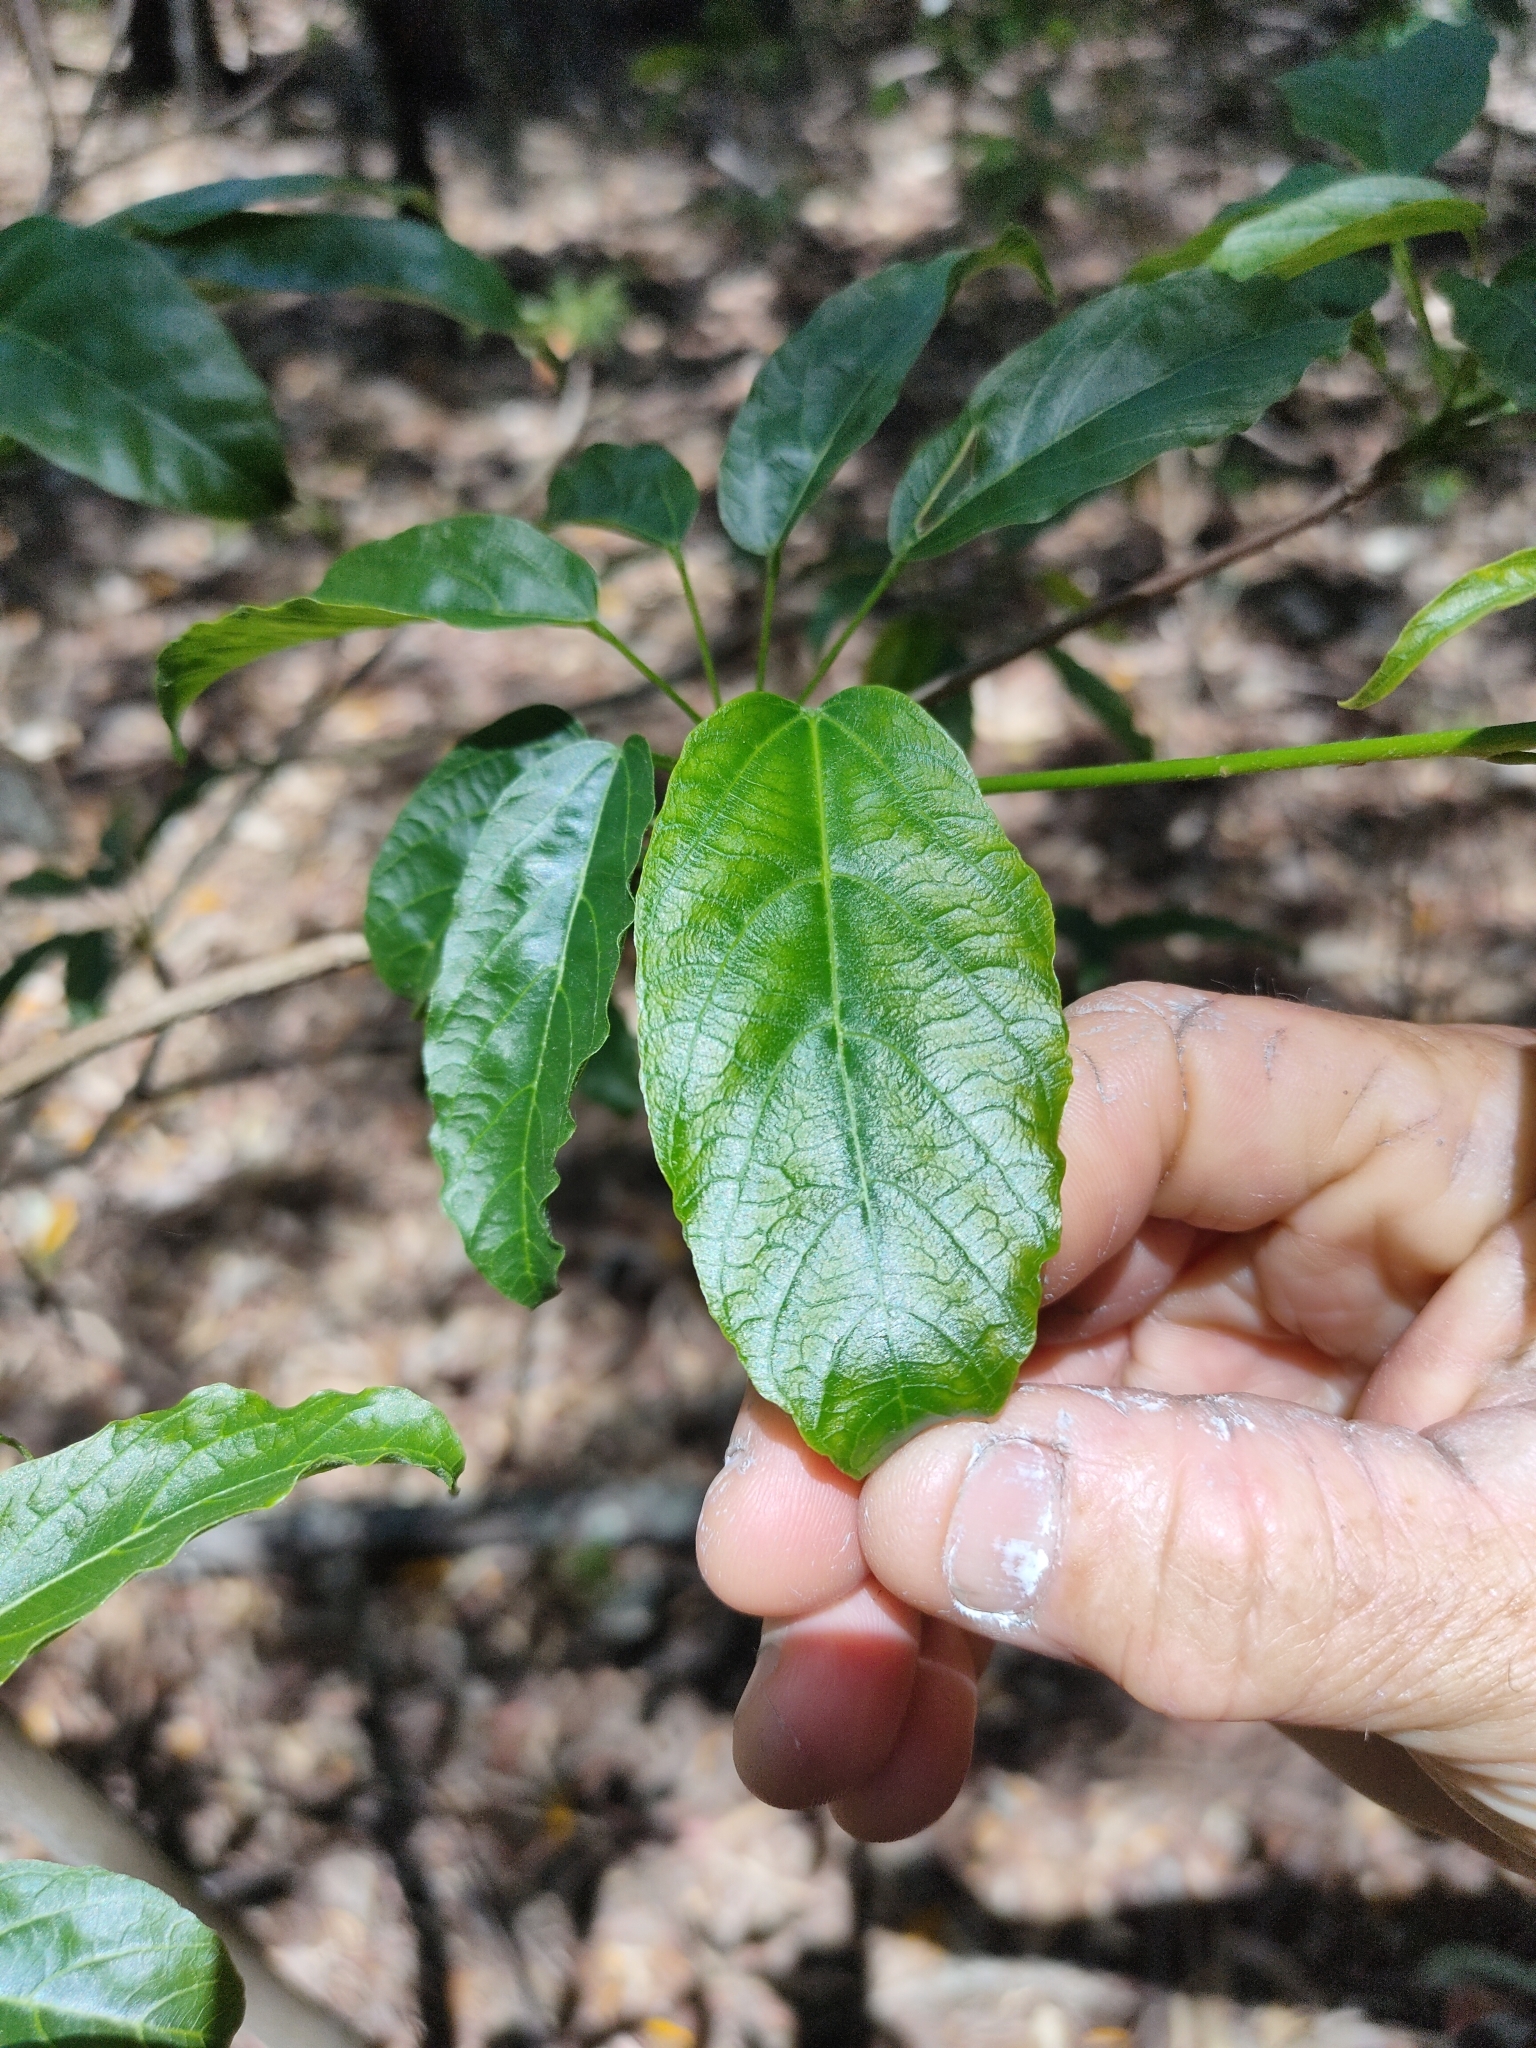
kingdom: Plantae
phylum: Tracheophyta
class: Magnoliopsida
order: Malvales
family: Malvaceae
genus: Sterculia
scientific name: Sterculia quadrifida
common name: Orange-fruit kurrajong
